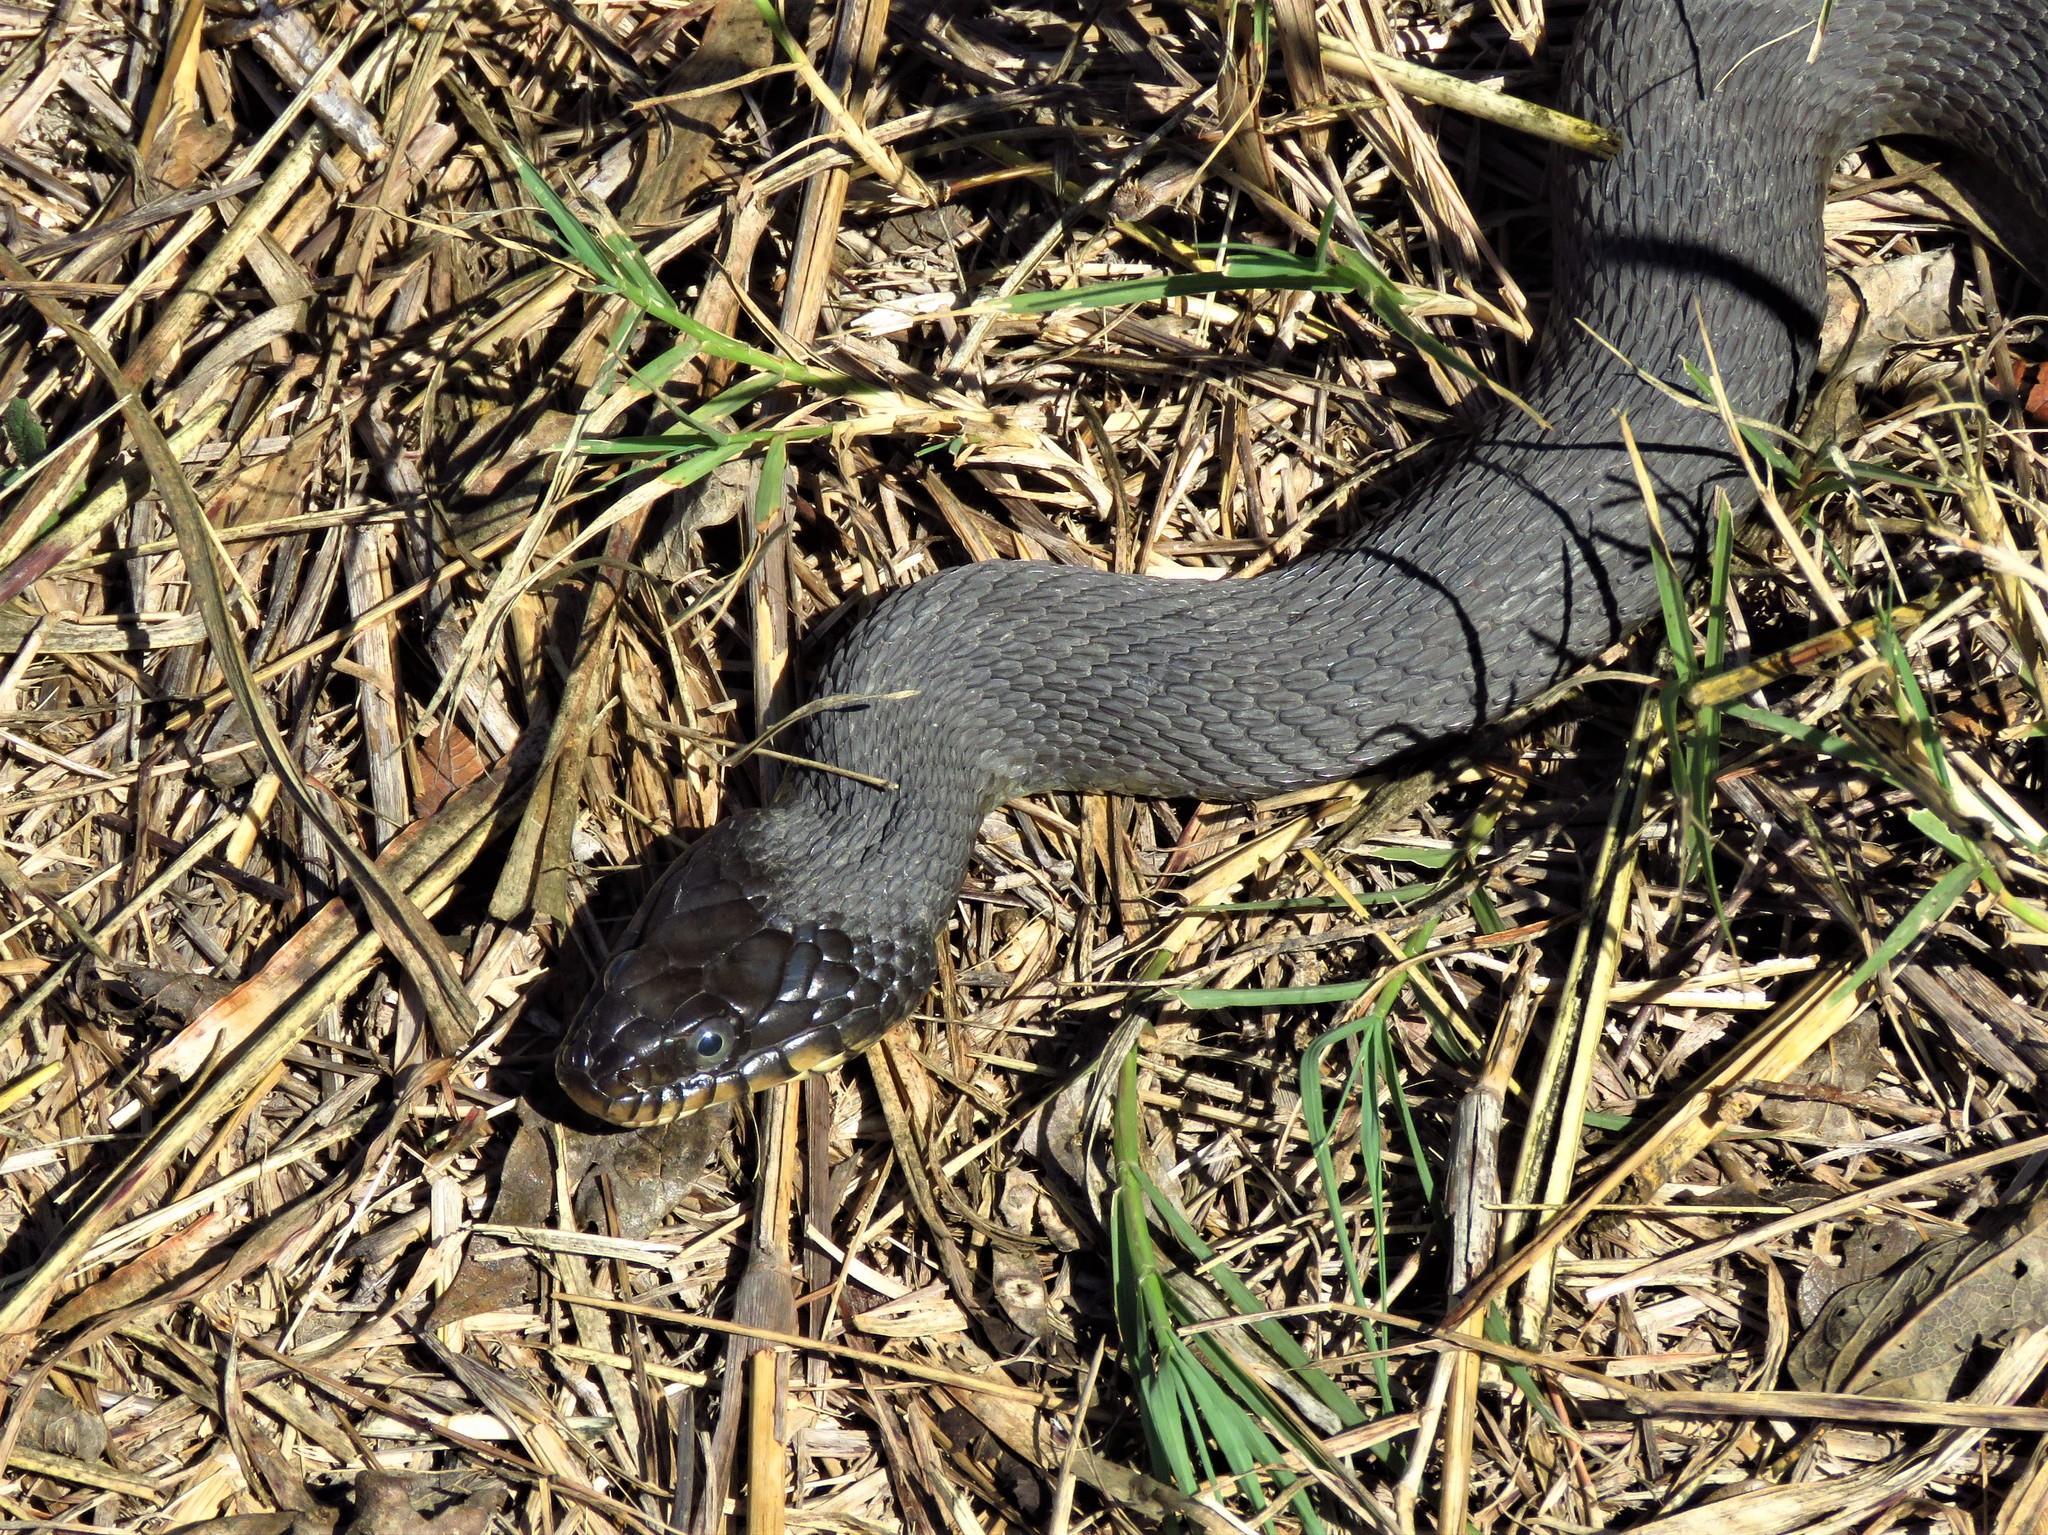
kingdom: Animalia
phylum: Chordata
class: Squamata
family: Colubridae
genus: Nerodia
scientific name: Nerodia erythrogaster
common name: Plainbelly water snake
